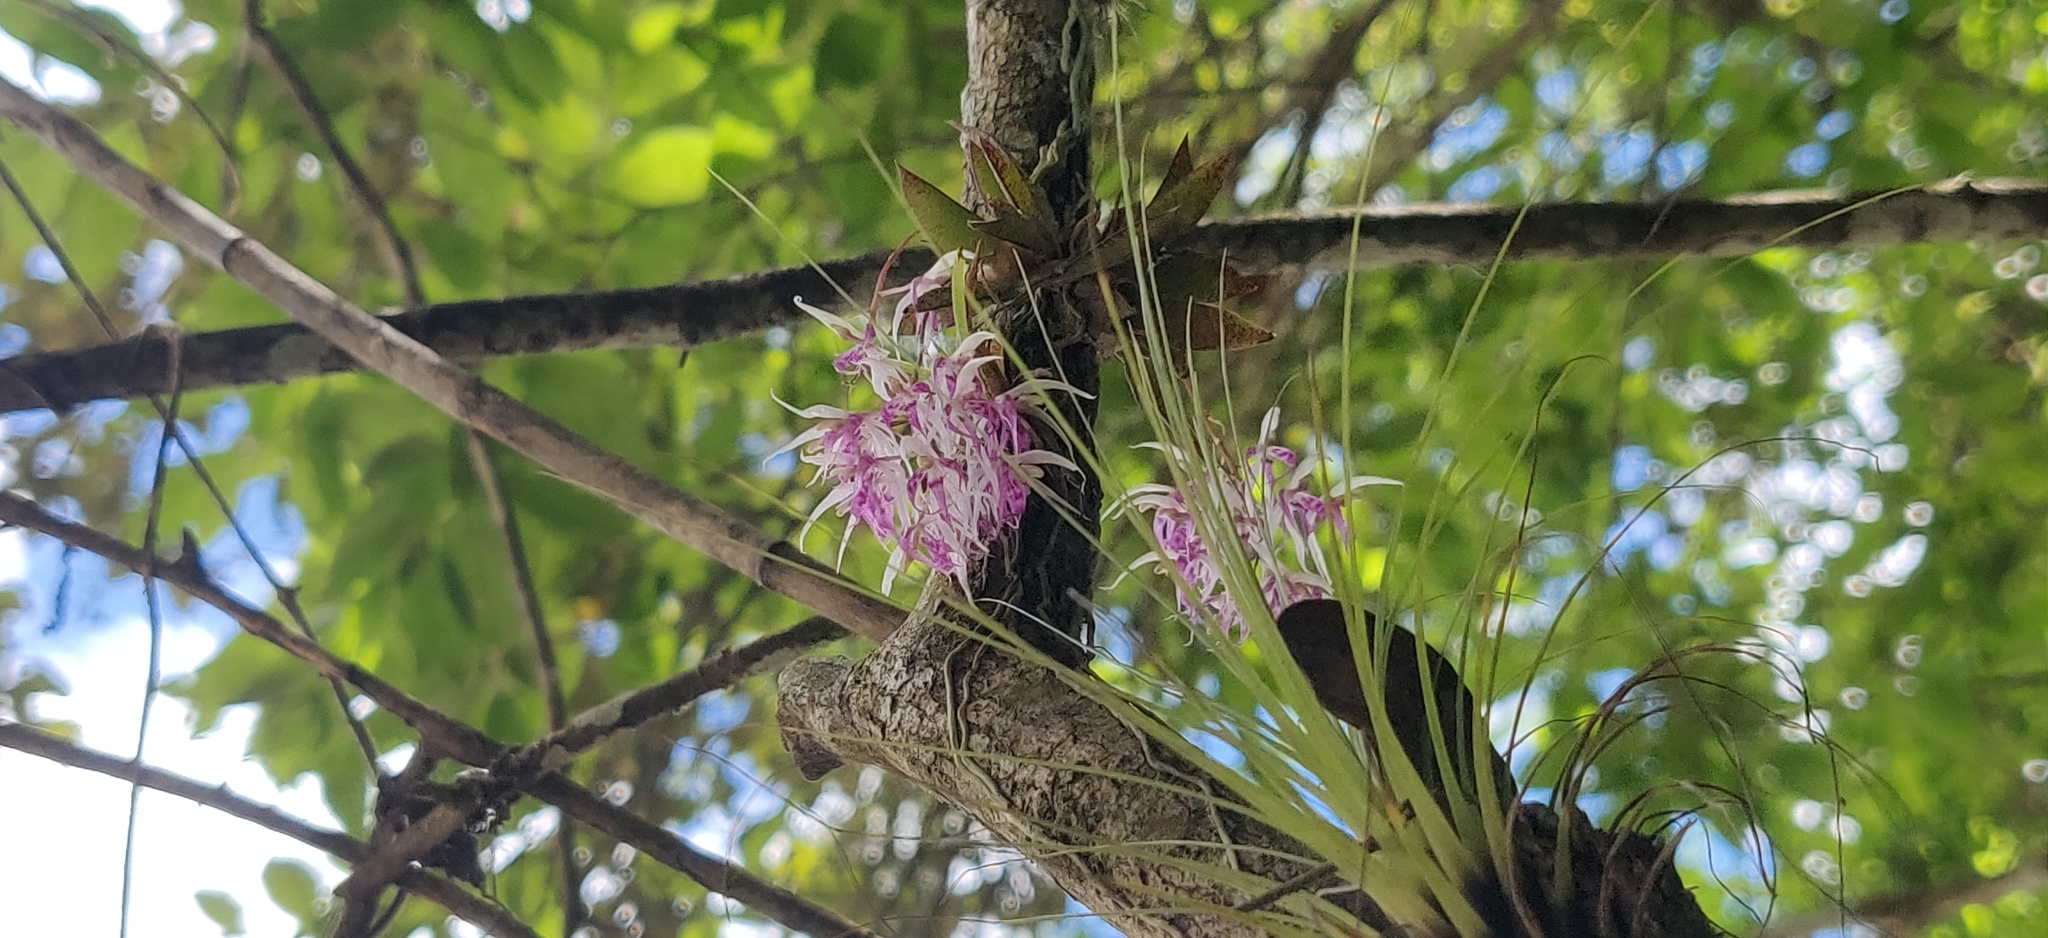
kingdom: Plantae
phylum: Tracheophyta
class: Liliopsida
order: Asparagales
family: Orchidaceae
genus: Macroclinium
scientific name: Macroclinium bicolor
